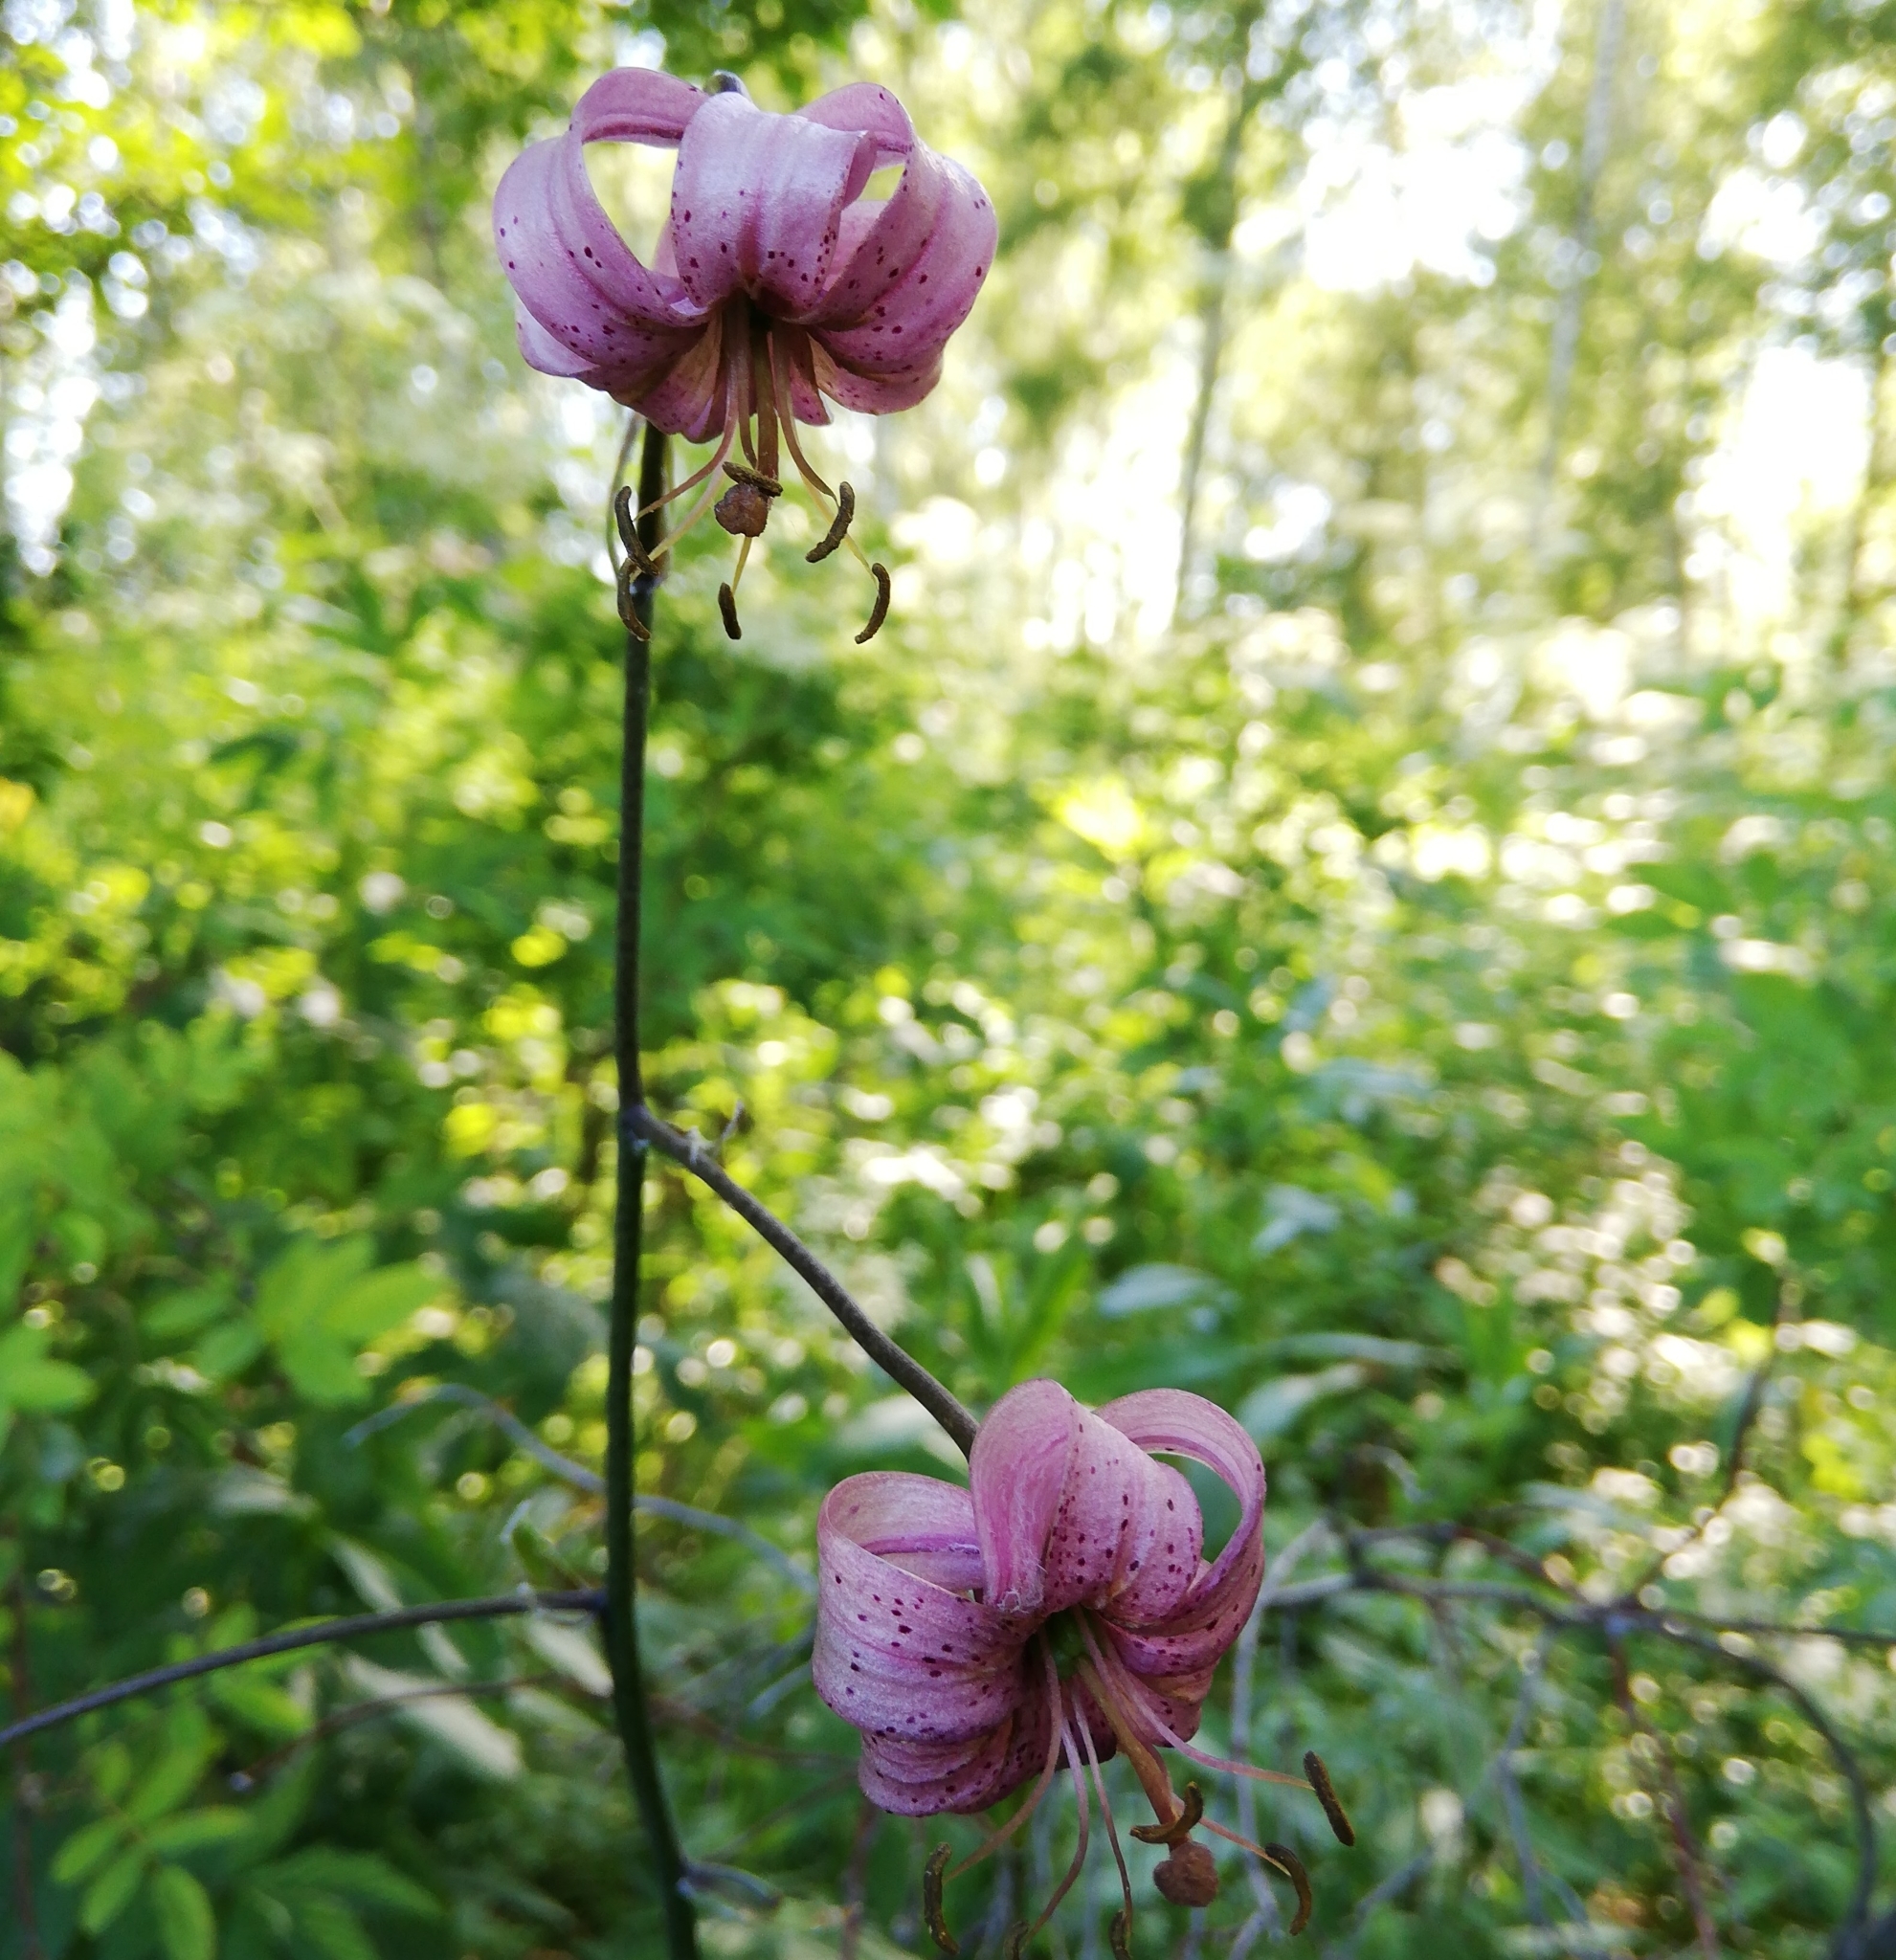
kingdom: Plantae
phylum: Tracheophyta
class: Liliopsida
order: Liliales
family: Liliaceae
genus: Lilium
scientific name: Lilium martagon
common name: Martagon lily
